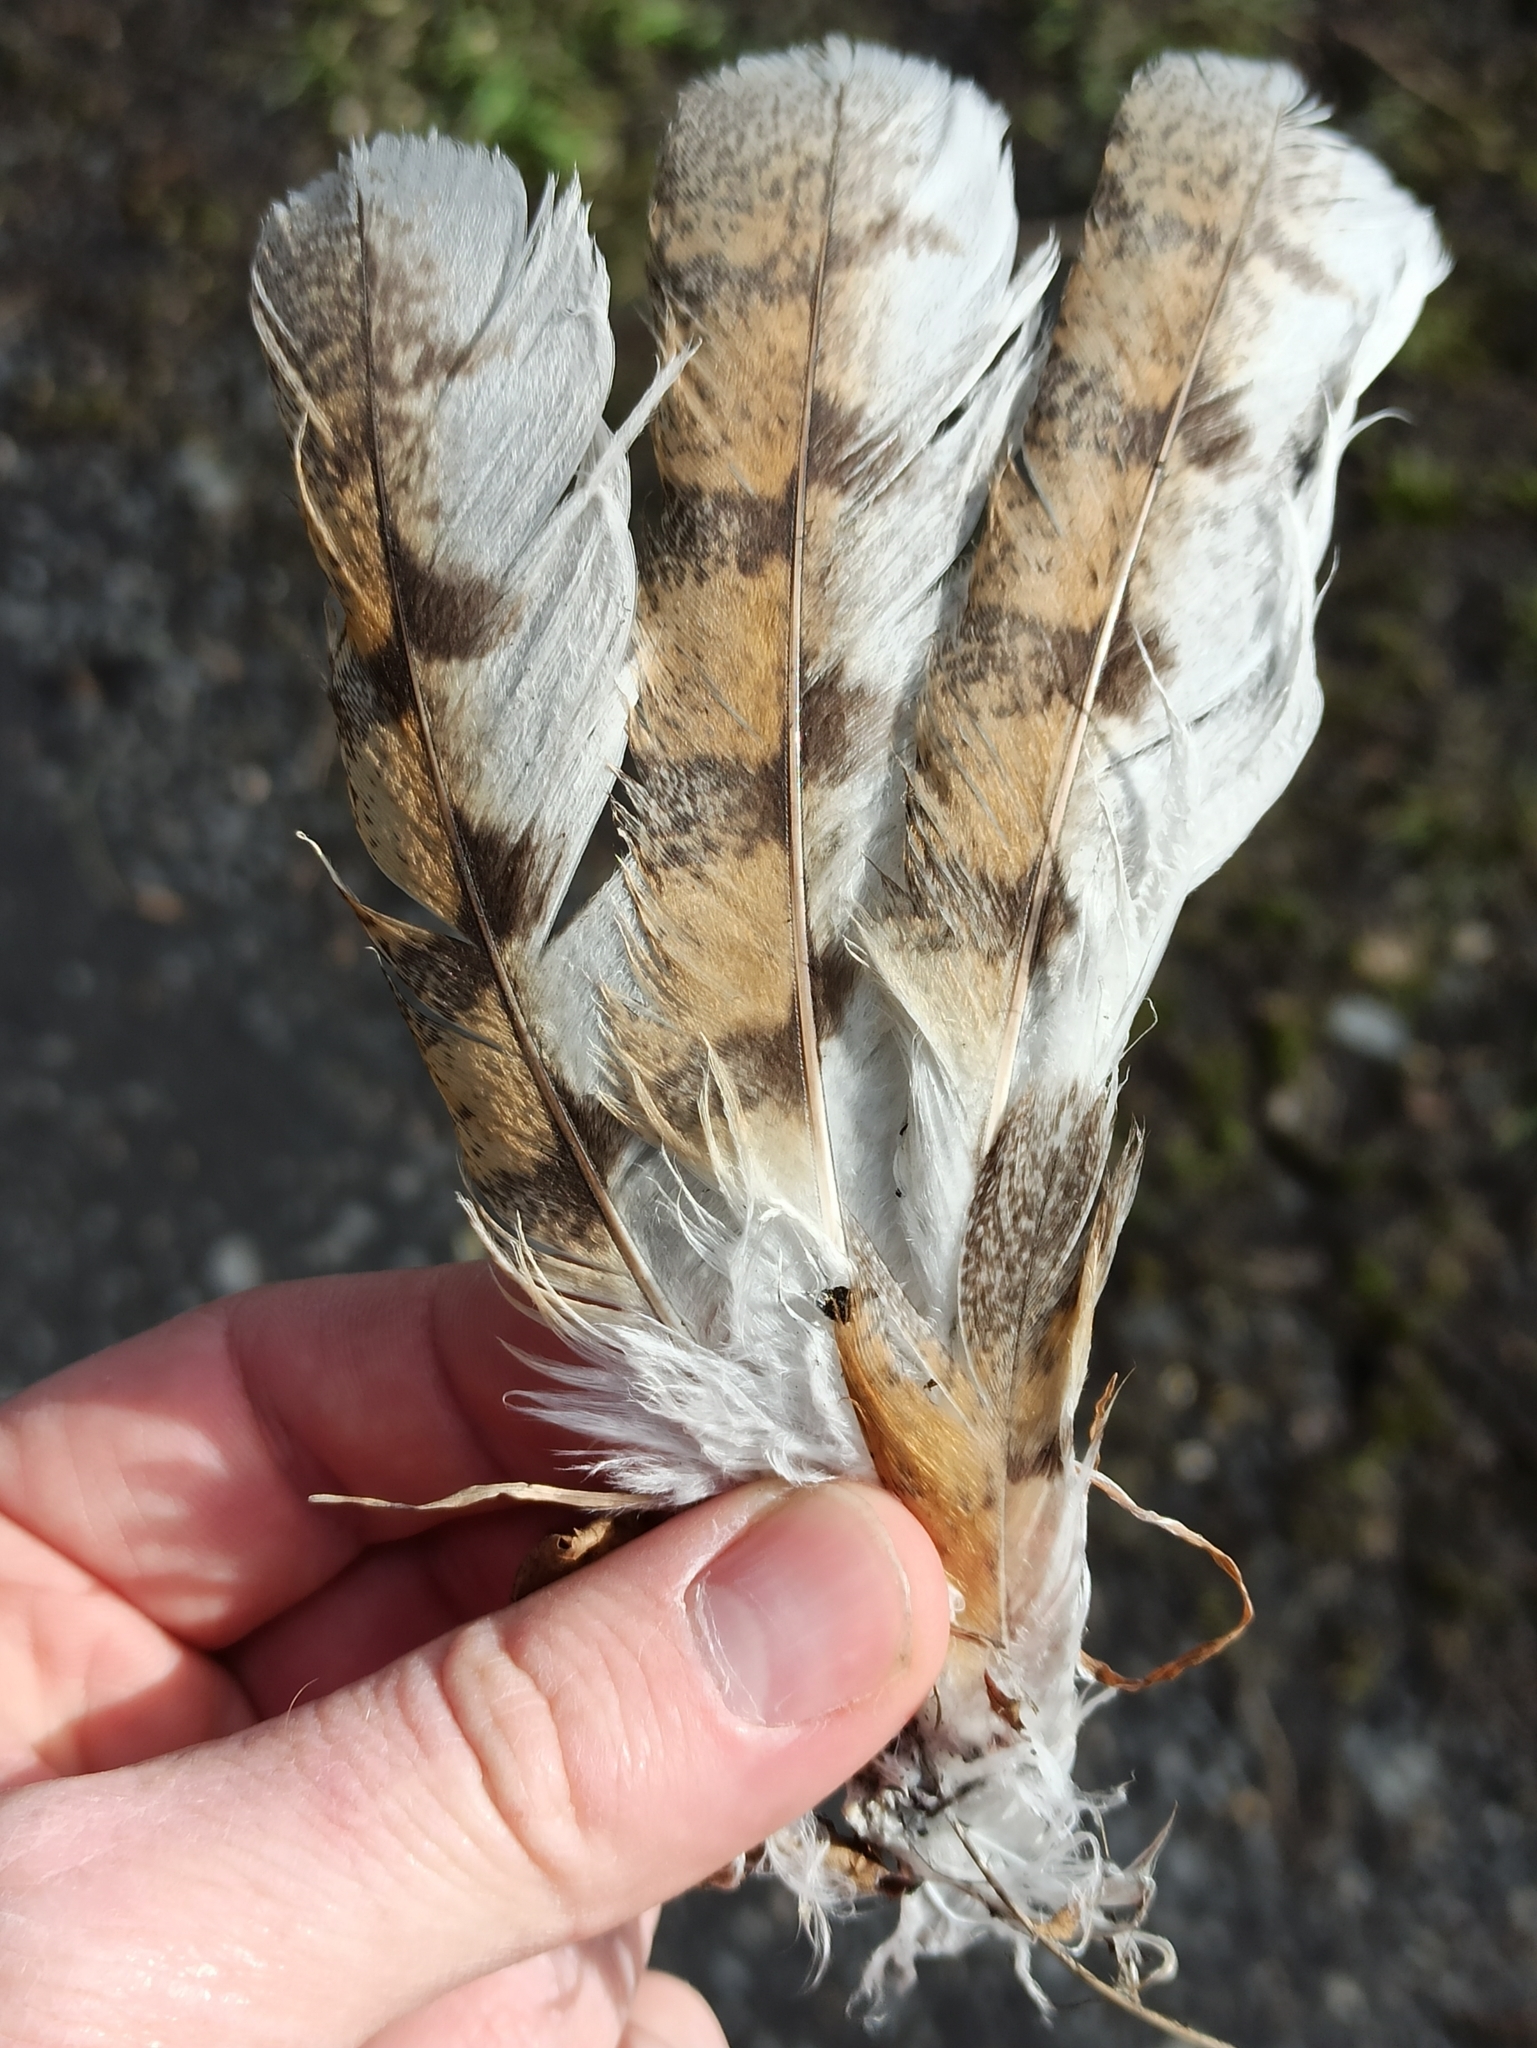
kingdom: Animalia
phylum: Chordata
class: Aves
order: Strigiformes
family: Tytonidae
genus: Tyto
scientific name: Tyto alba
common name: Barn owl
